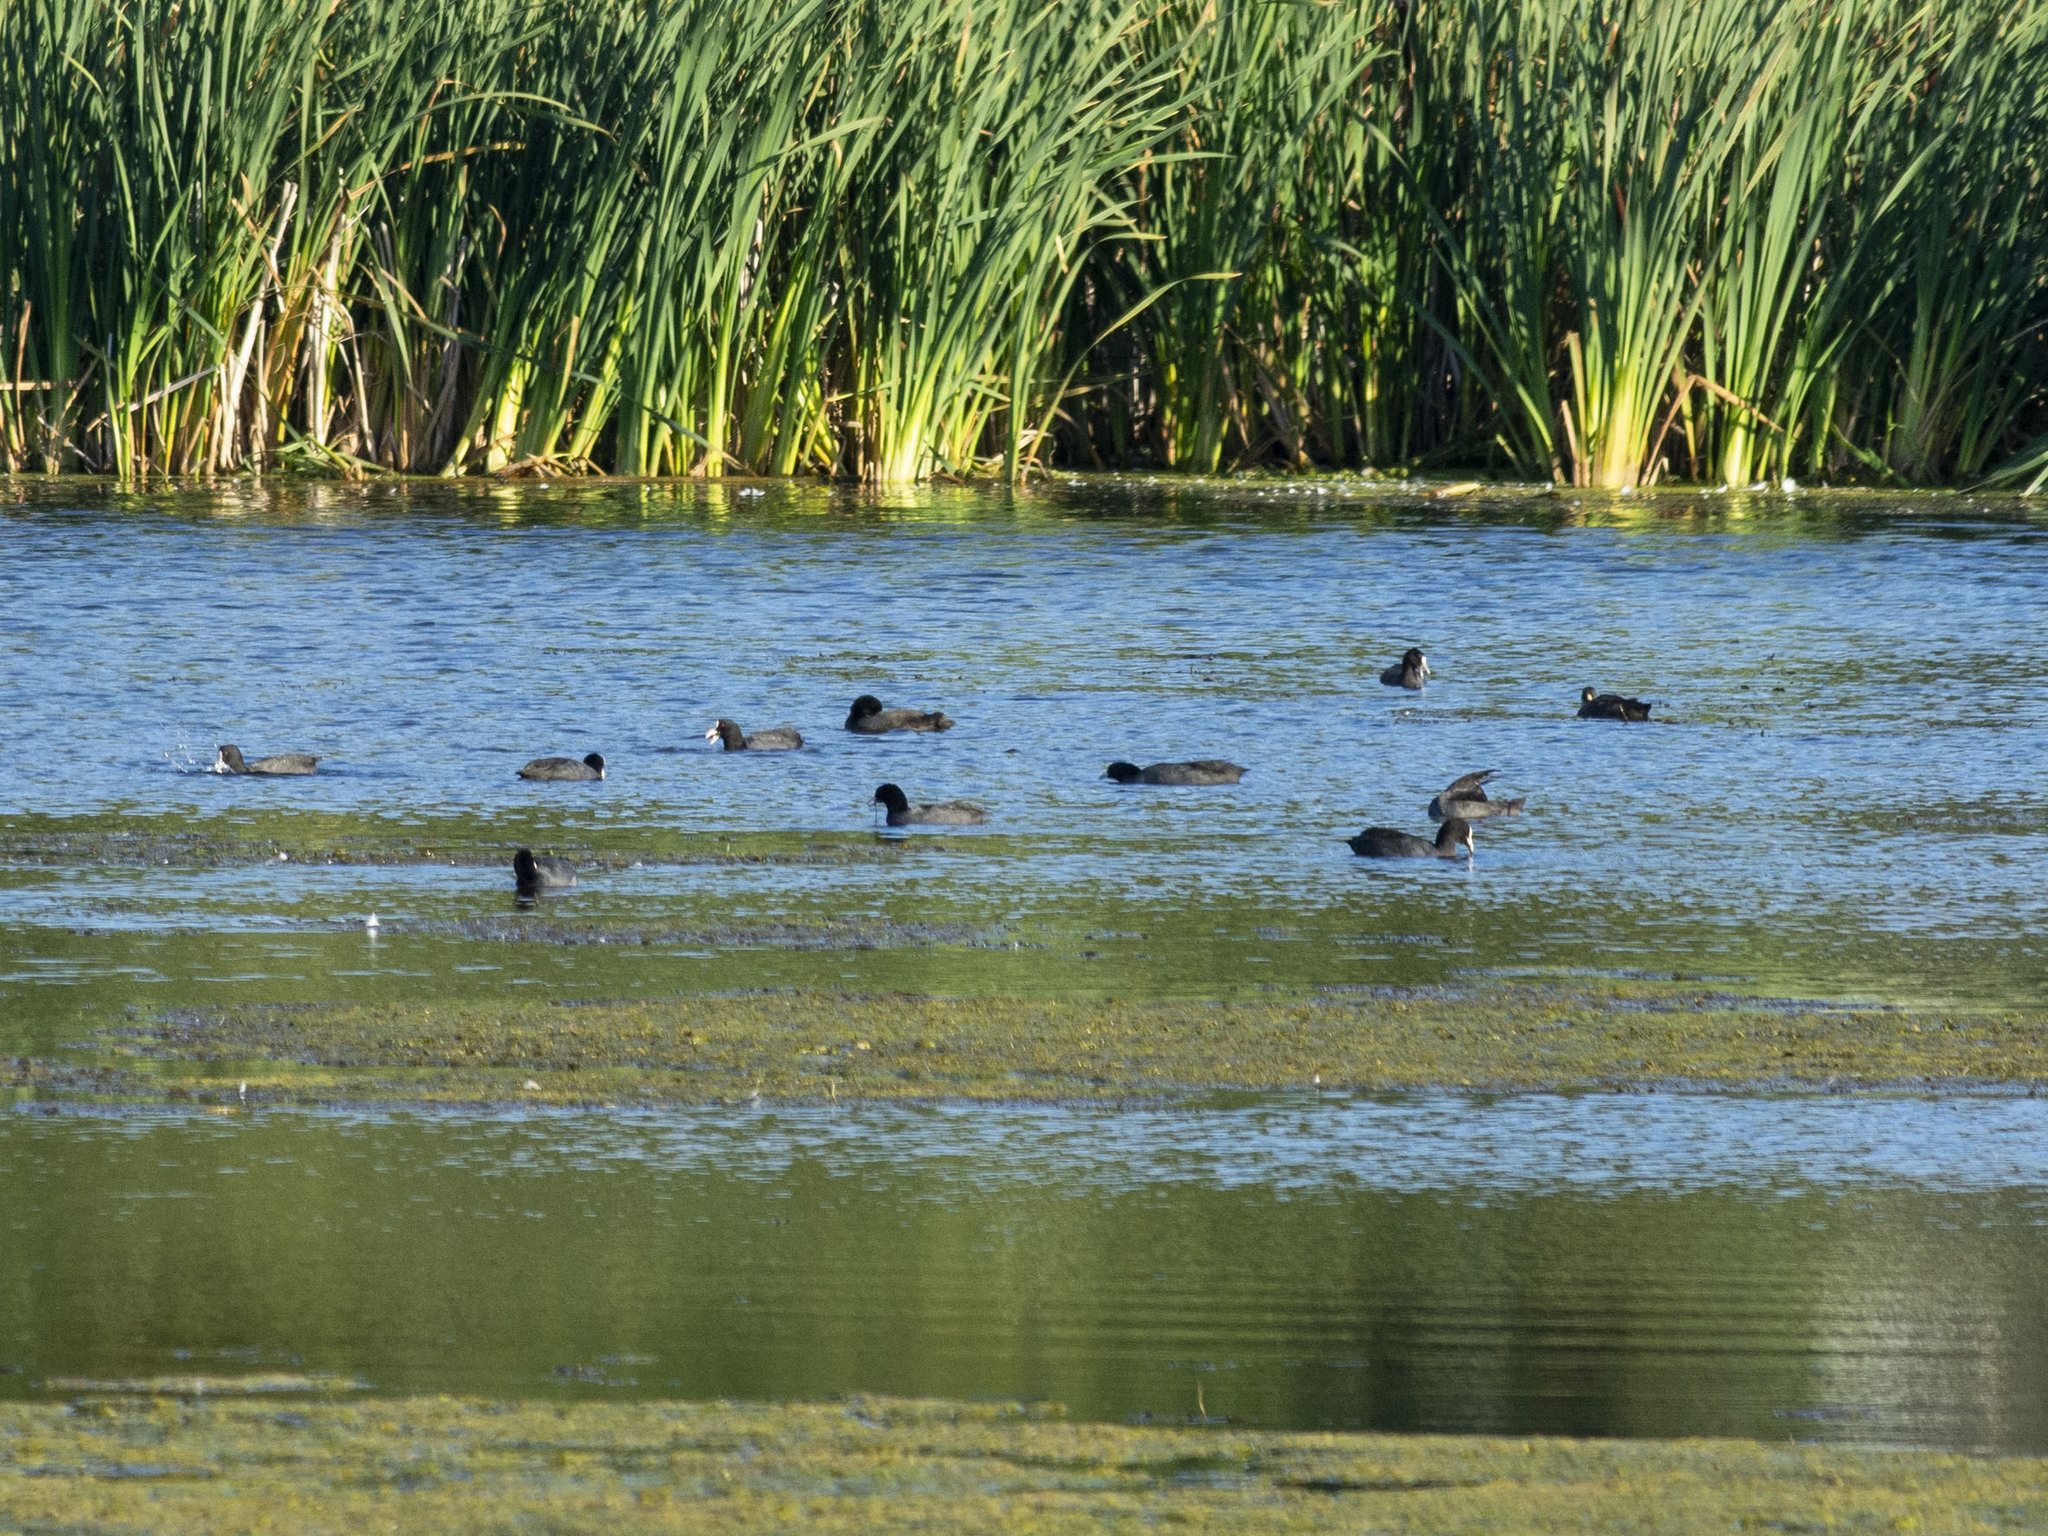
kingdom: Animalia
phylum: Chordata
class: Aves
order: Gruiformes
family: Rallidae
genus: Fulica
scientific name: Fulica atra
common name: Eurasian coot
